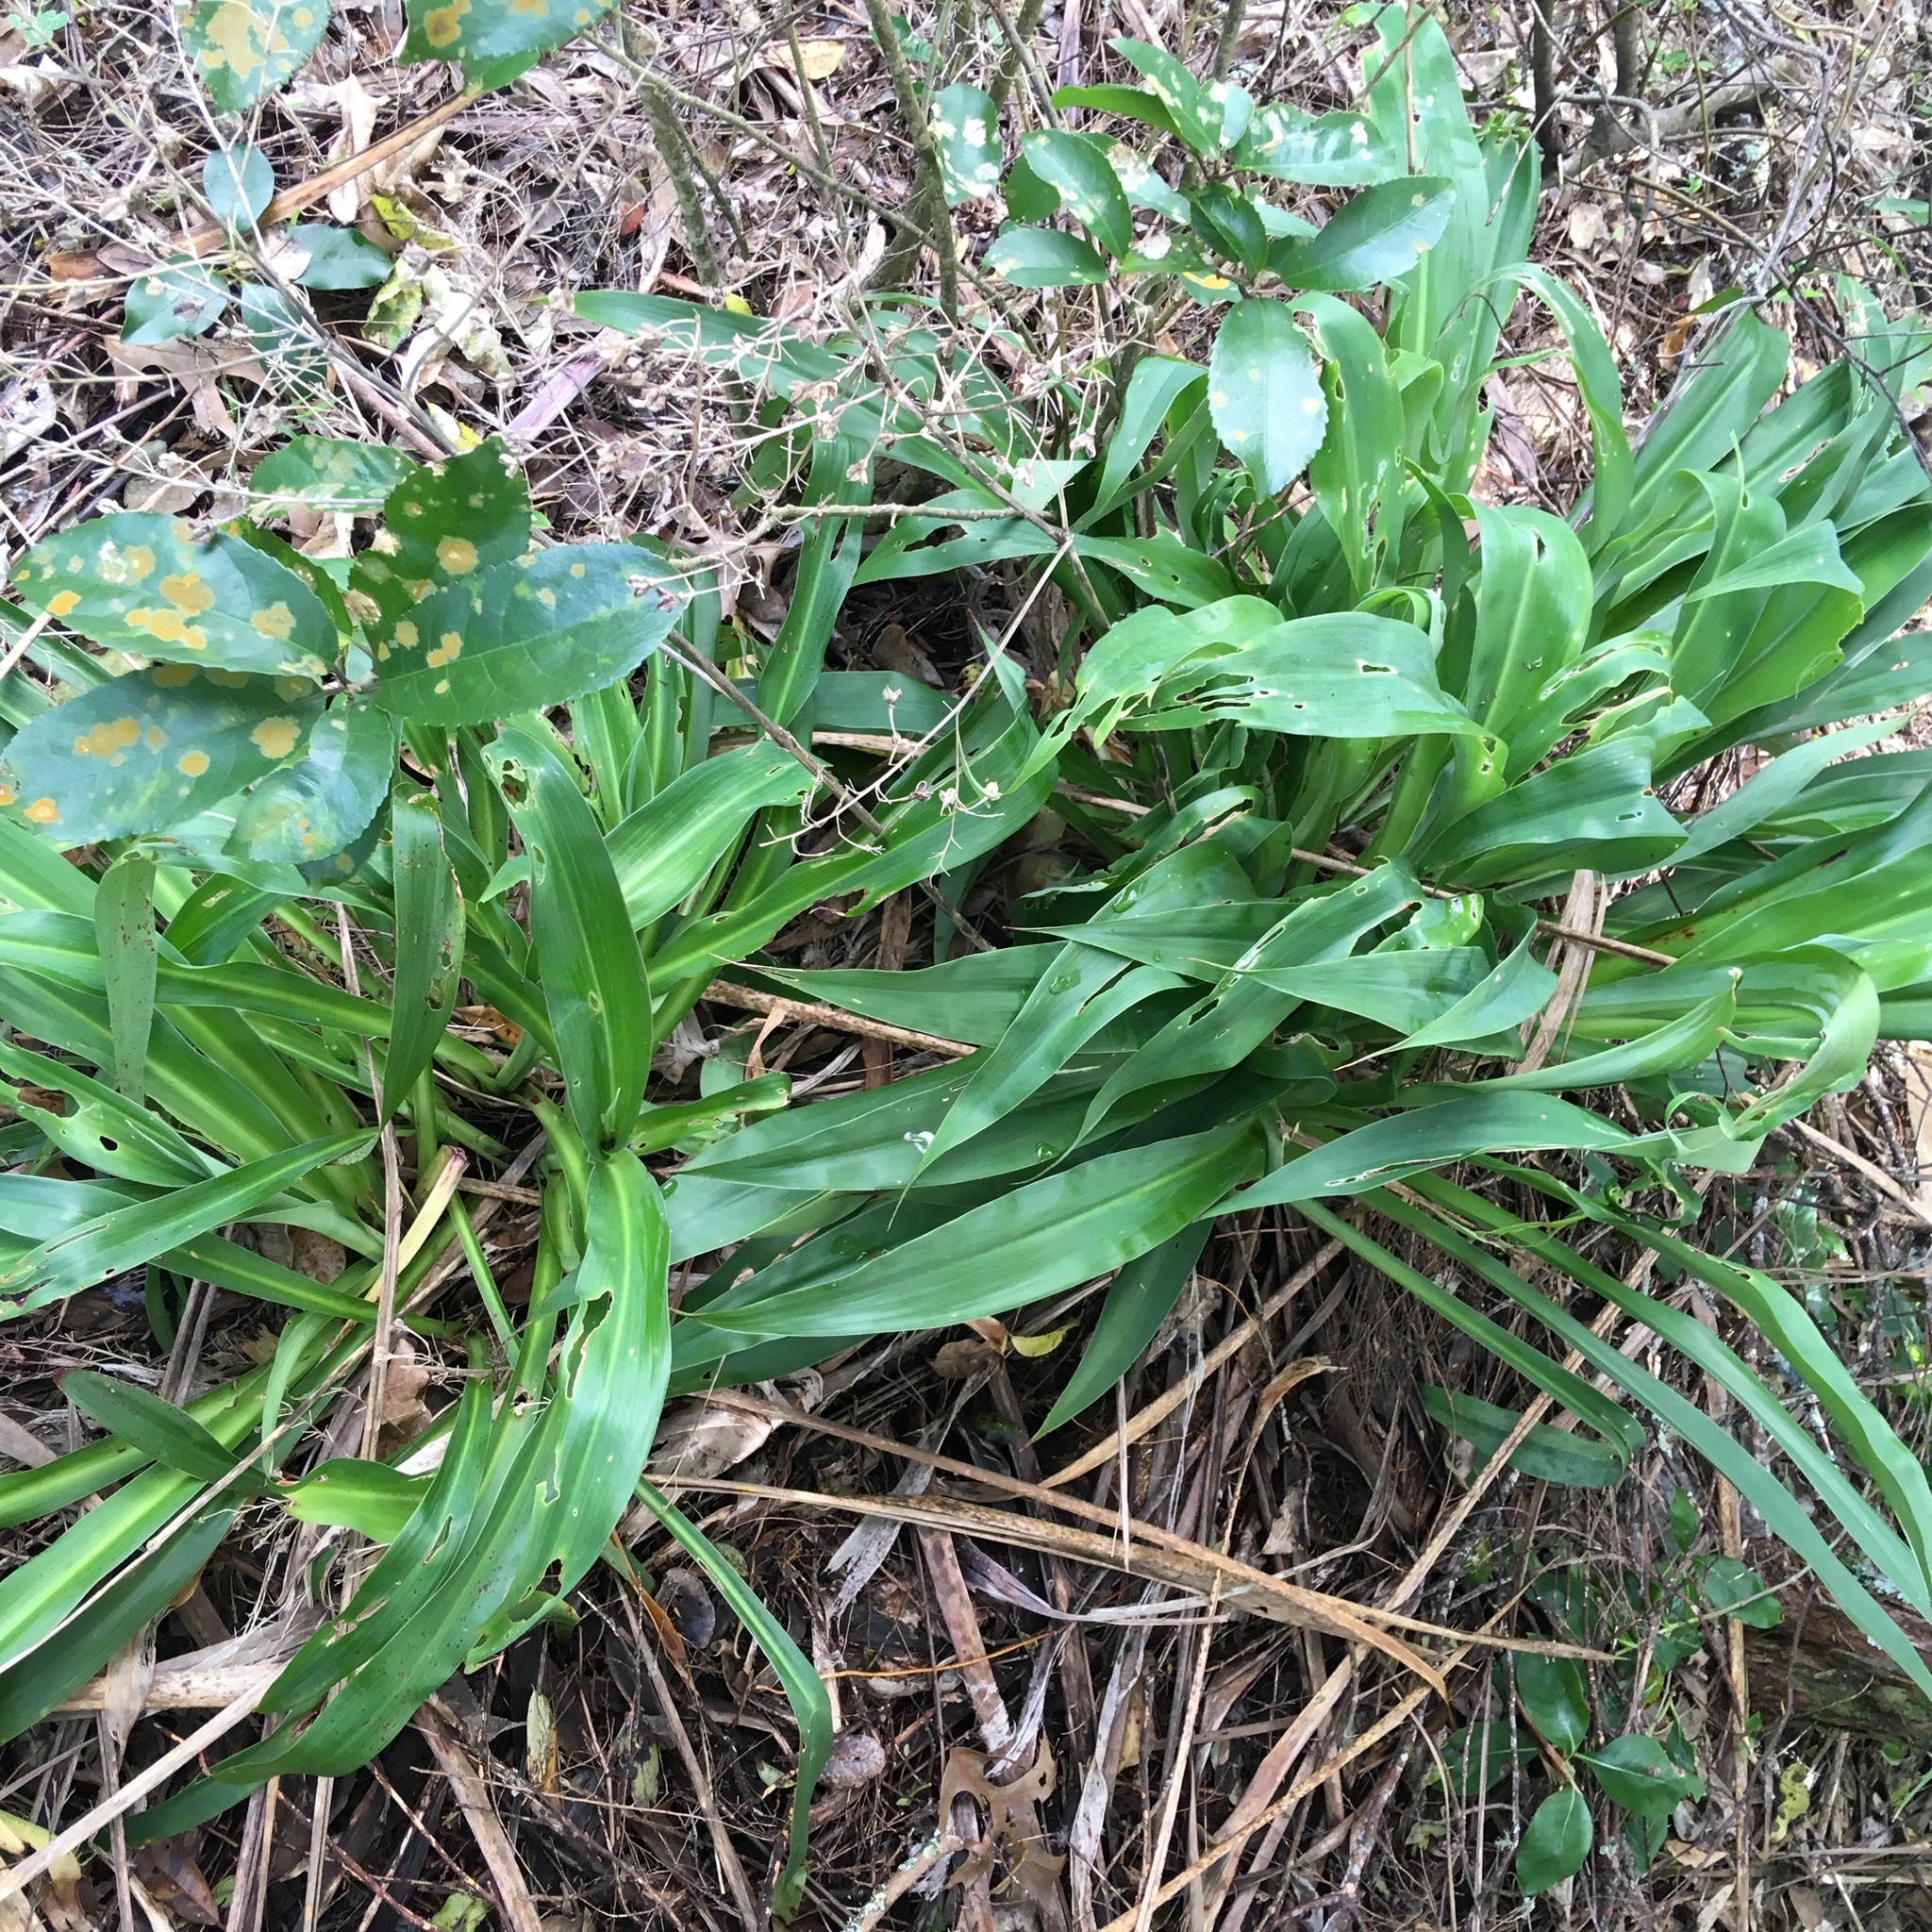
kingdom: Plantae
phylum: Tracheophyta
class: Liliopsida
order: Asparagales
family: Asparagaceae
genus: Arthropodium
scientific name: Arthropodium cirratum
